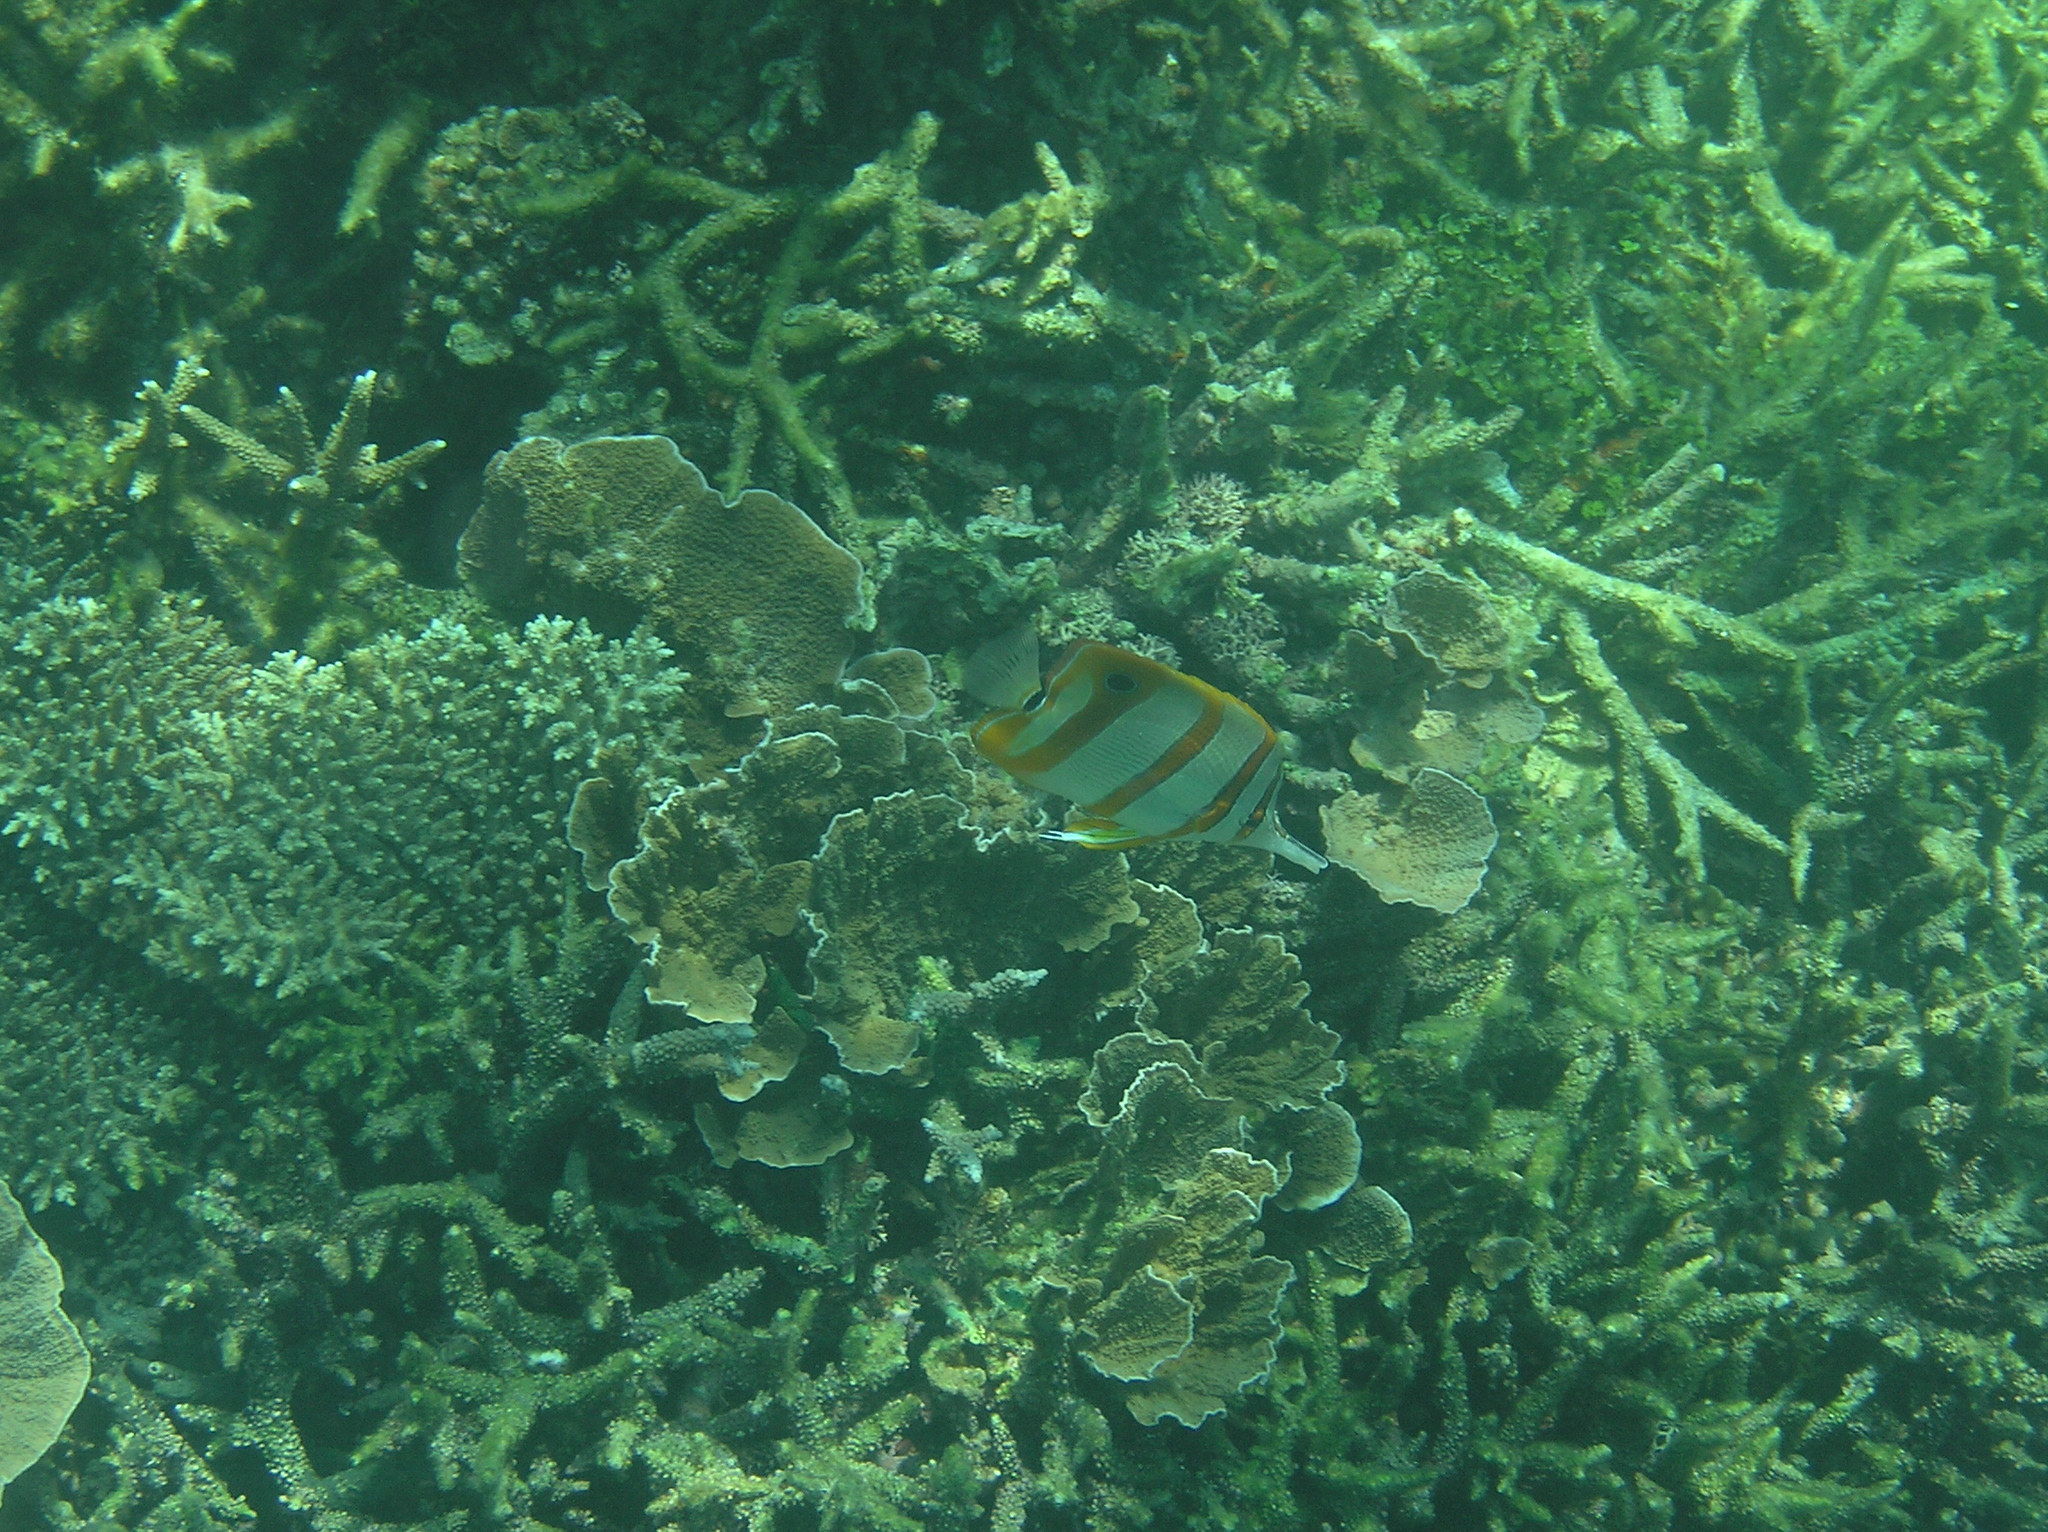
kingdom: Animalia
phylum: Chordata
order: Perciformes
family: Chaetodontidae
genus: Chelmon
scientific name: Chelmon rostratus
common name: Beaked butterflyfish
